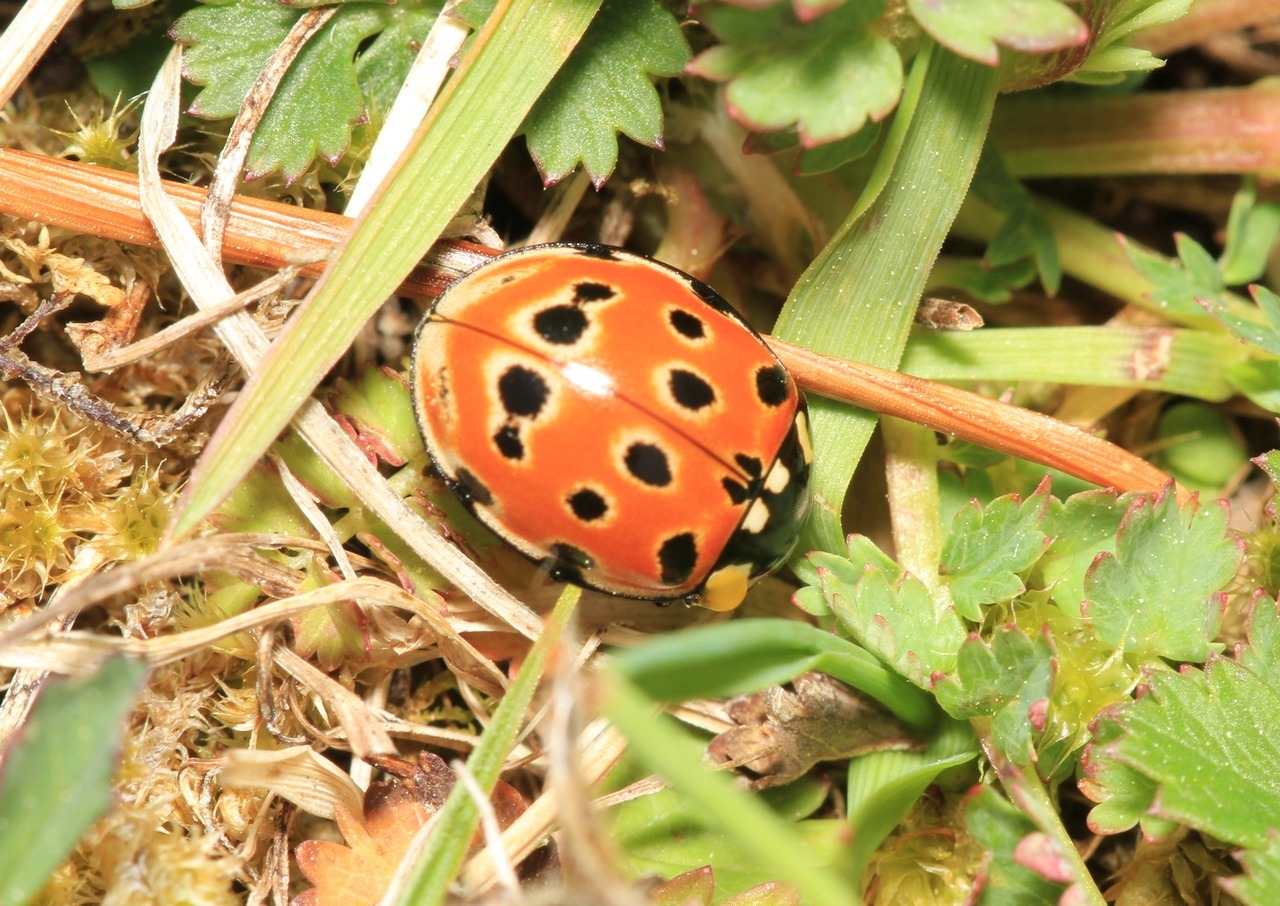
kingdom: Animalia
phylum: Arthropoda
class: Insecta
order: Coleoptera
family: Coccinellidae
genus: Anatis
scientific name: Anatis ocellata
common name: Eyed ladybird
